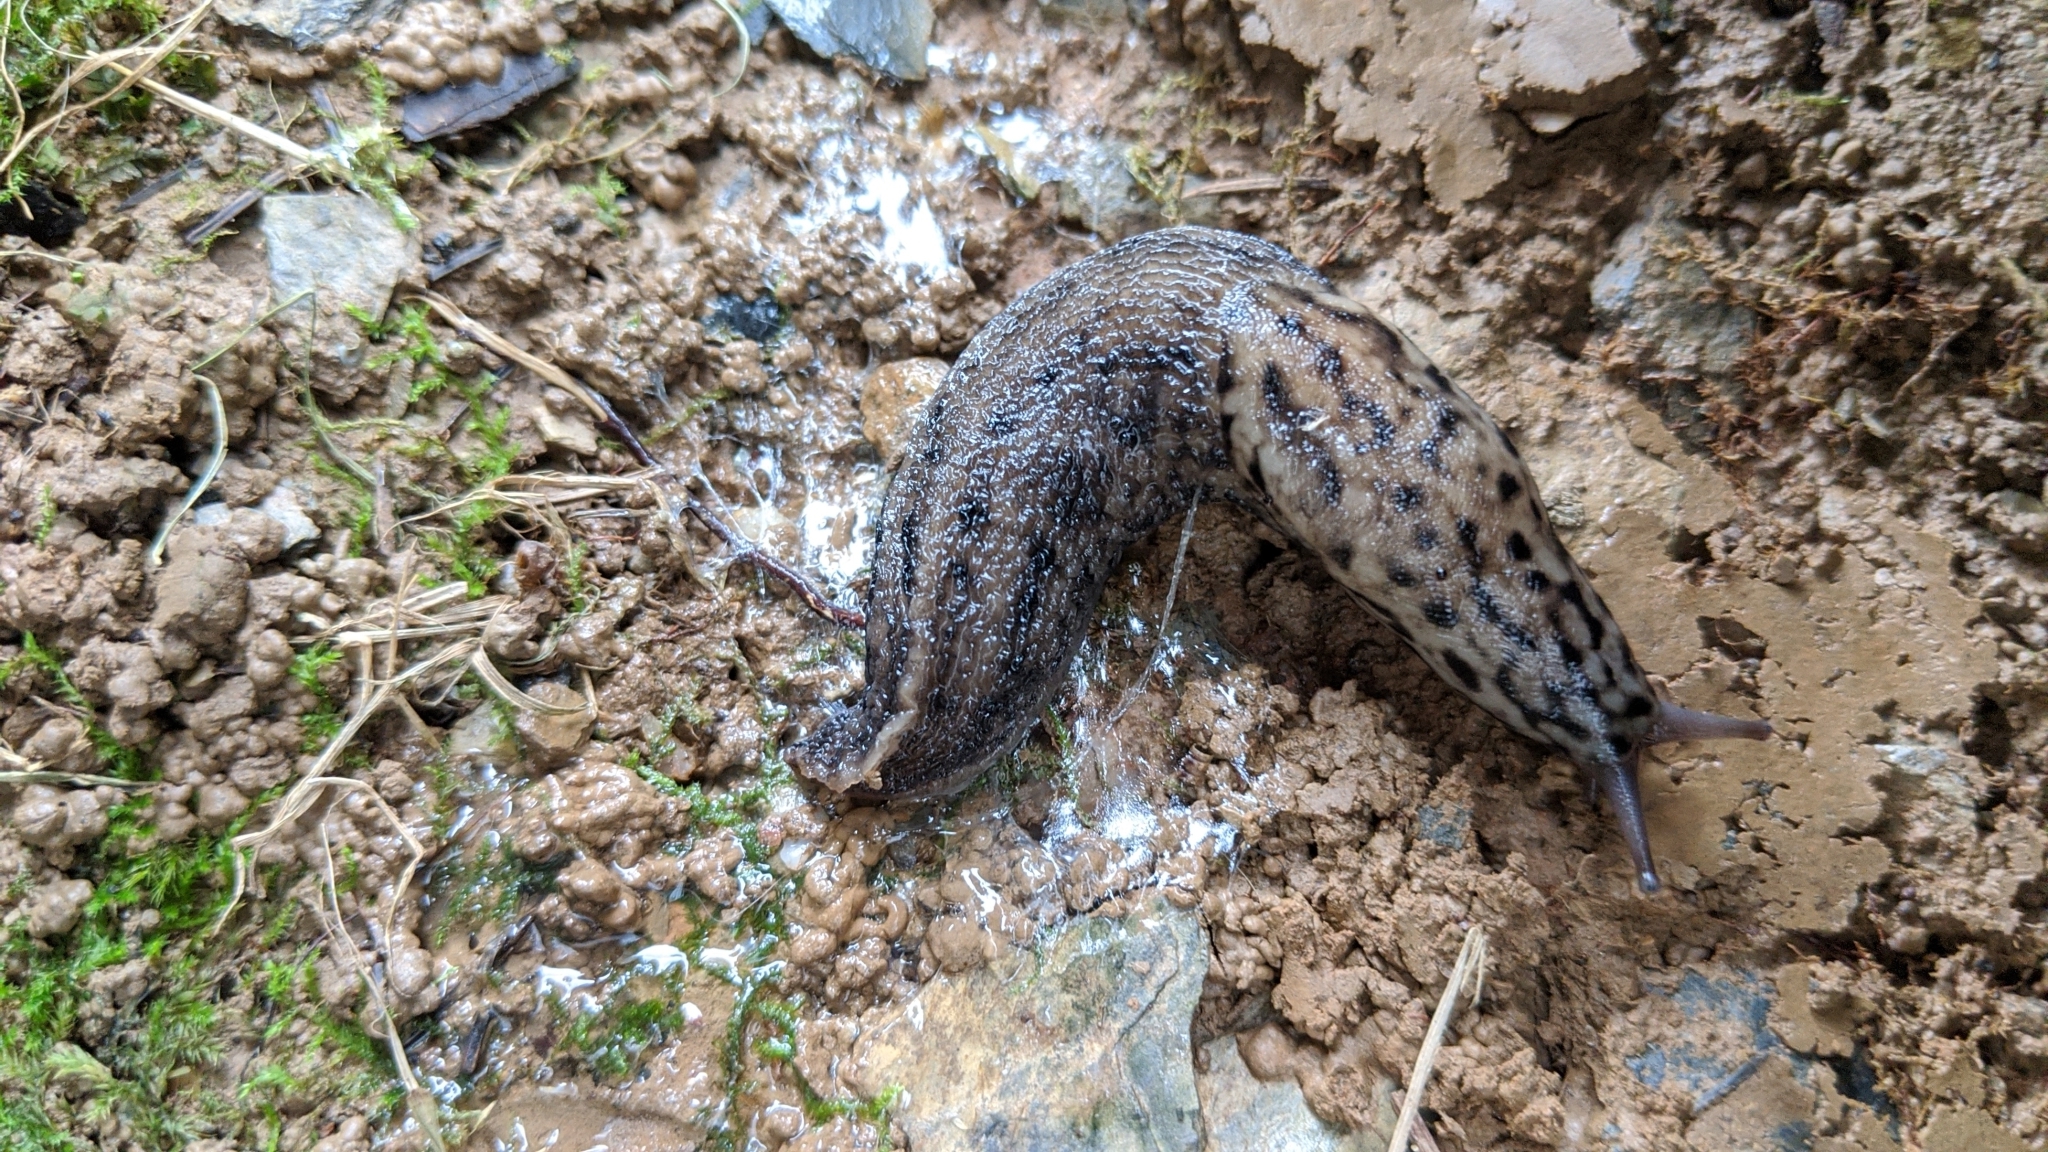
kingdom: Animalia
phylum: Mollusca
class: Gastropoda
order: Stylommatophora
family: Limacidae
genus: Limax
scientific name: Limax maximus
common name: Great grey slug
